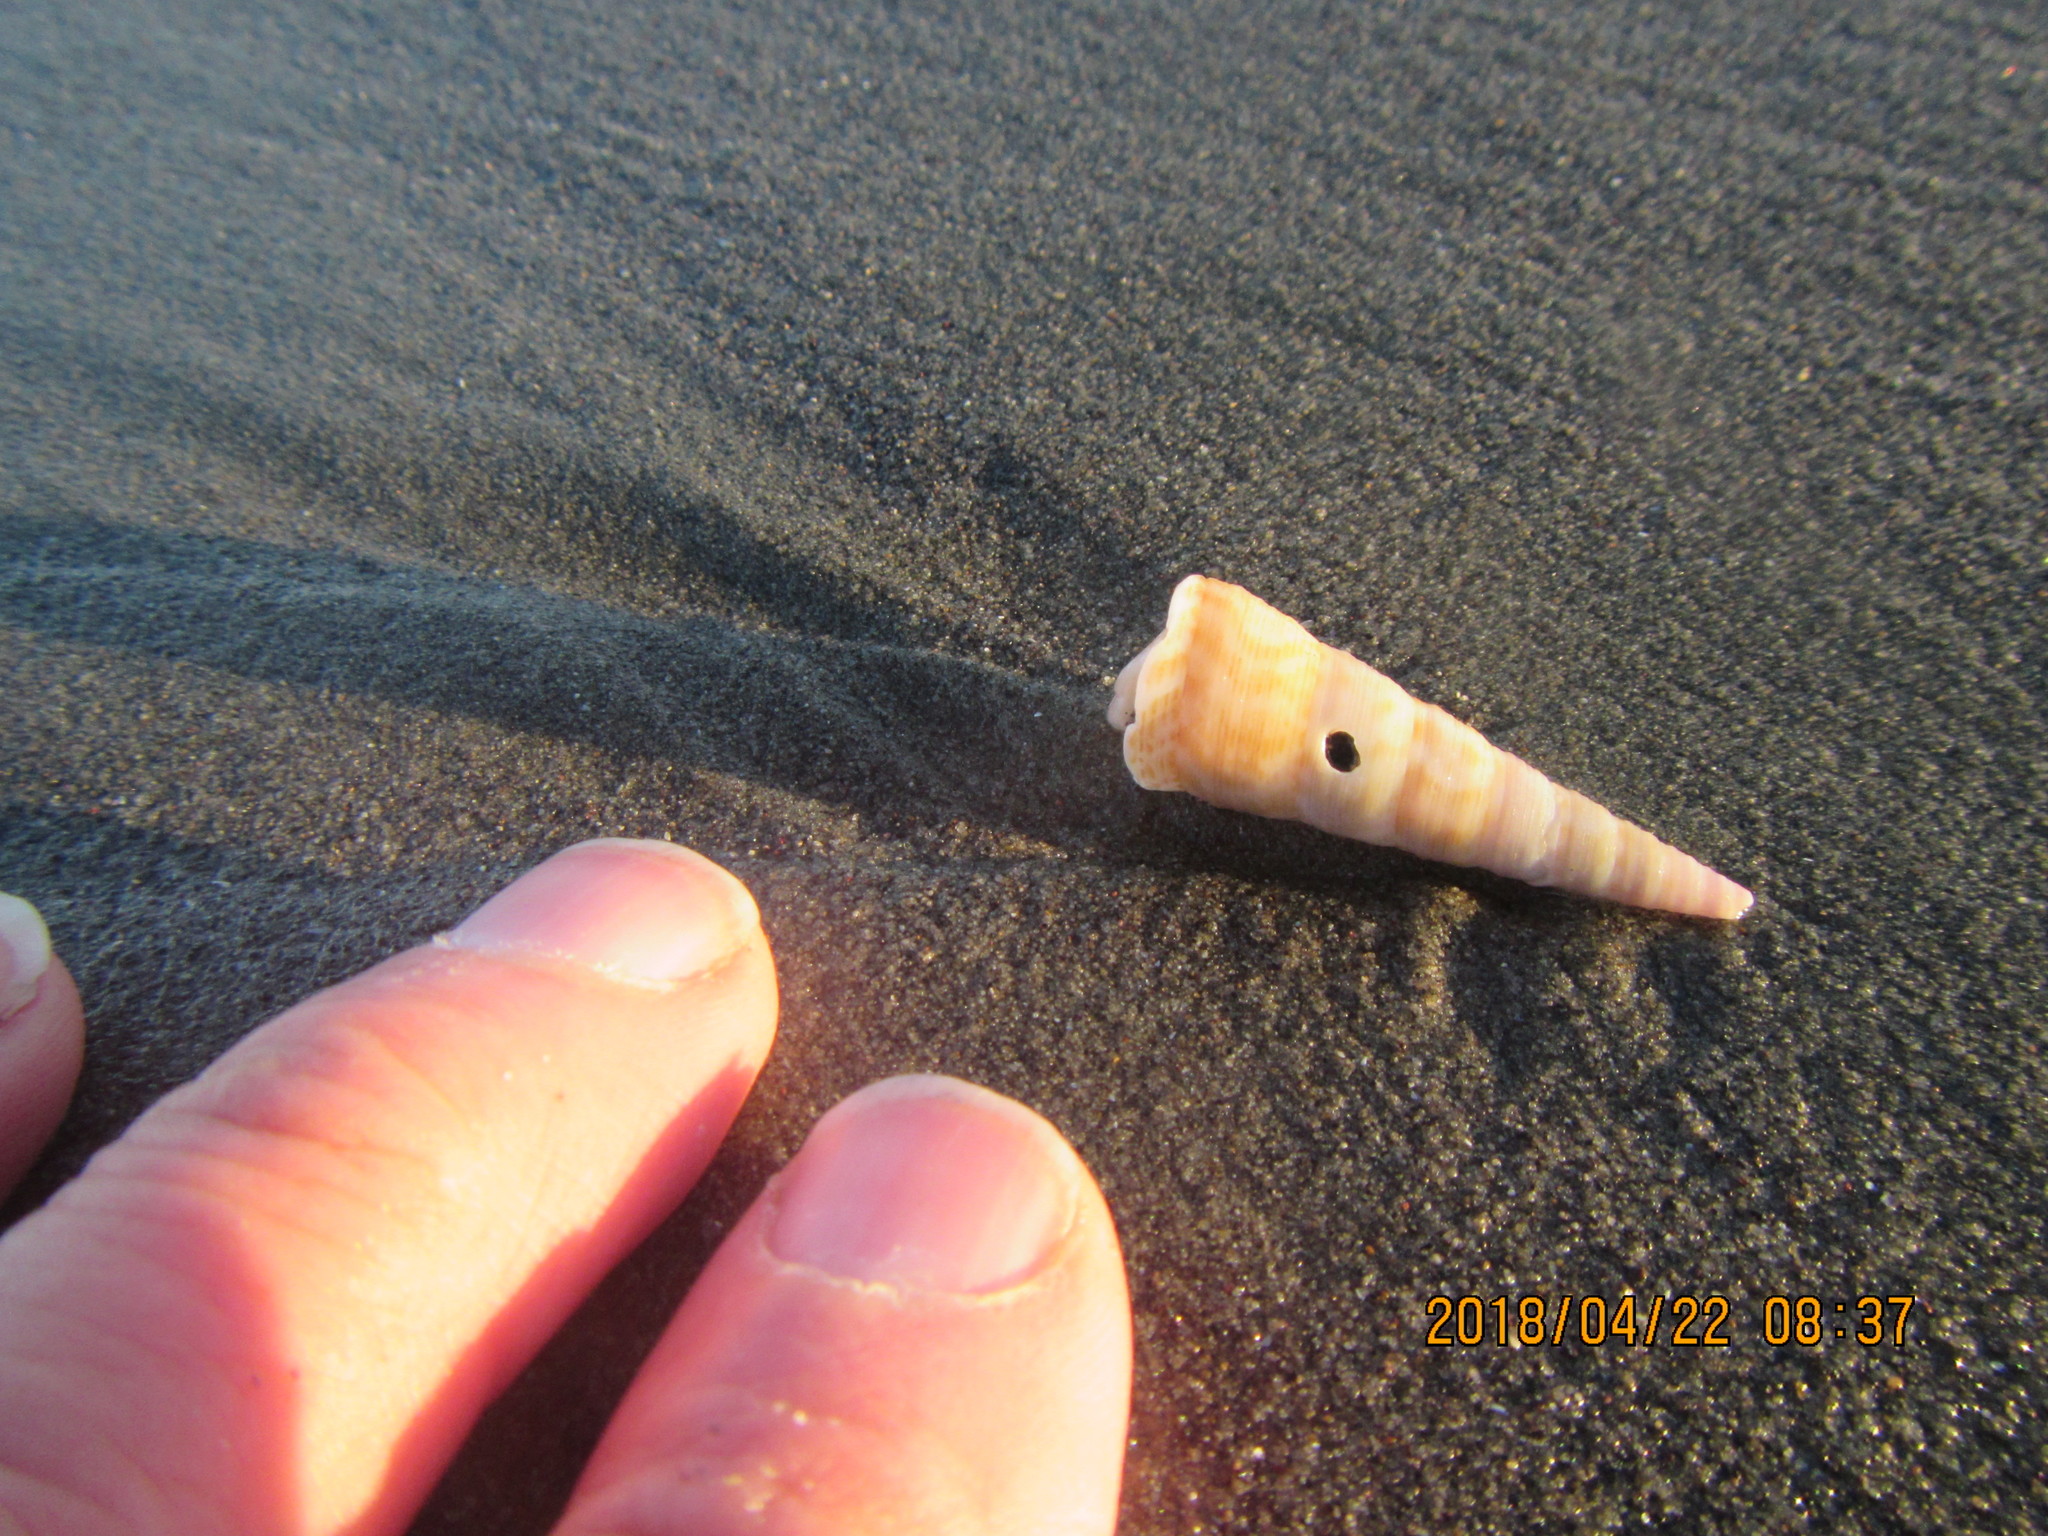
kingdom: Animalia
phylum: Mollusca
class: Gastropoda
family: Turritellidae
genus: Maoricolpus
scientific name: Maoricolpus roseus
